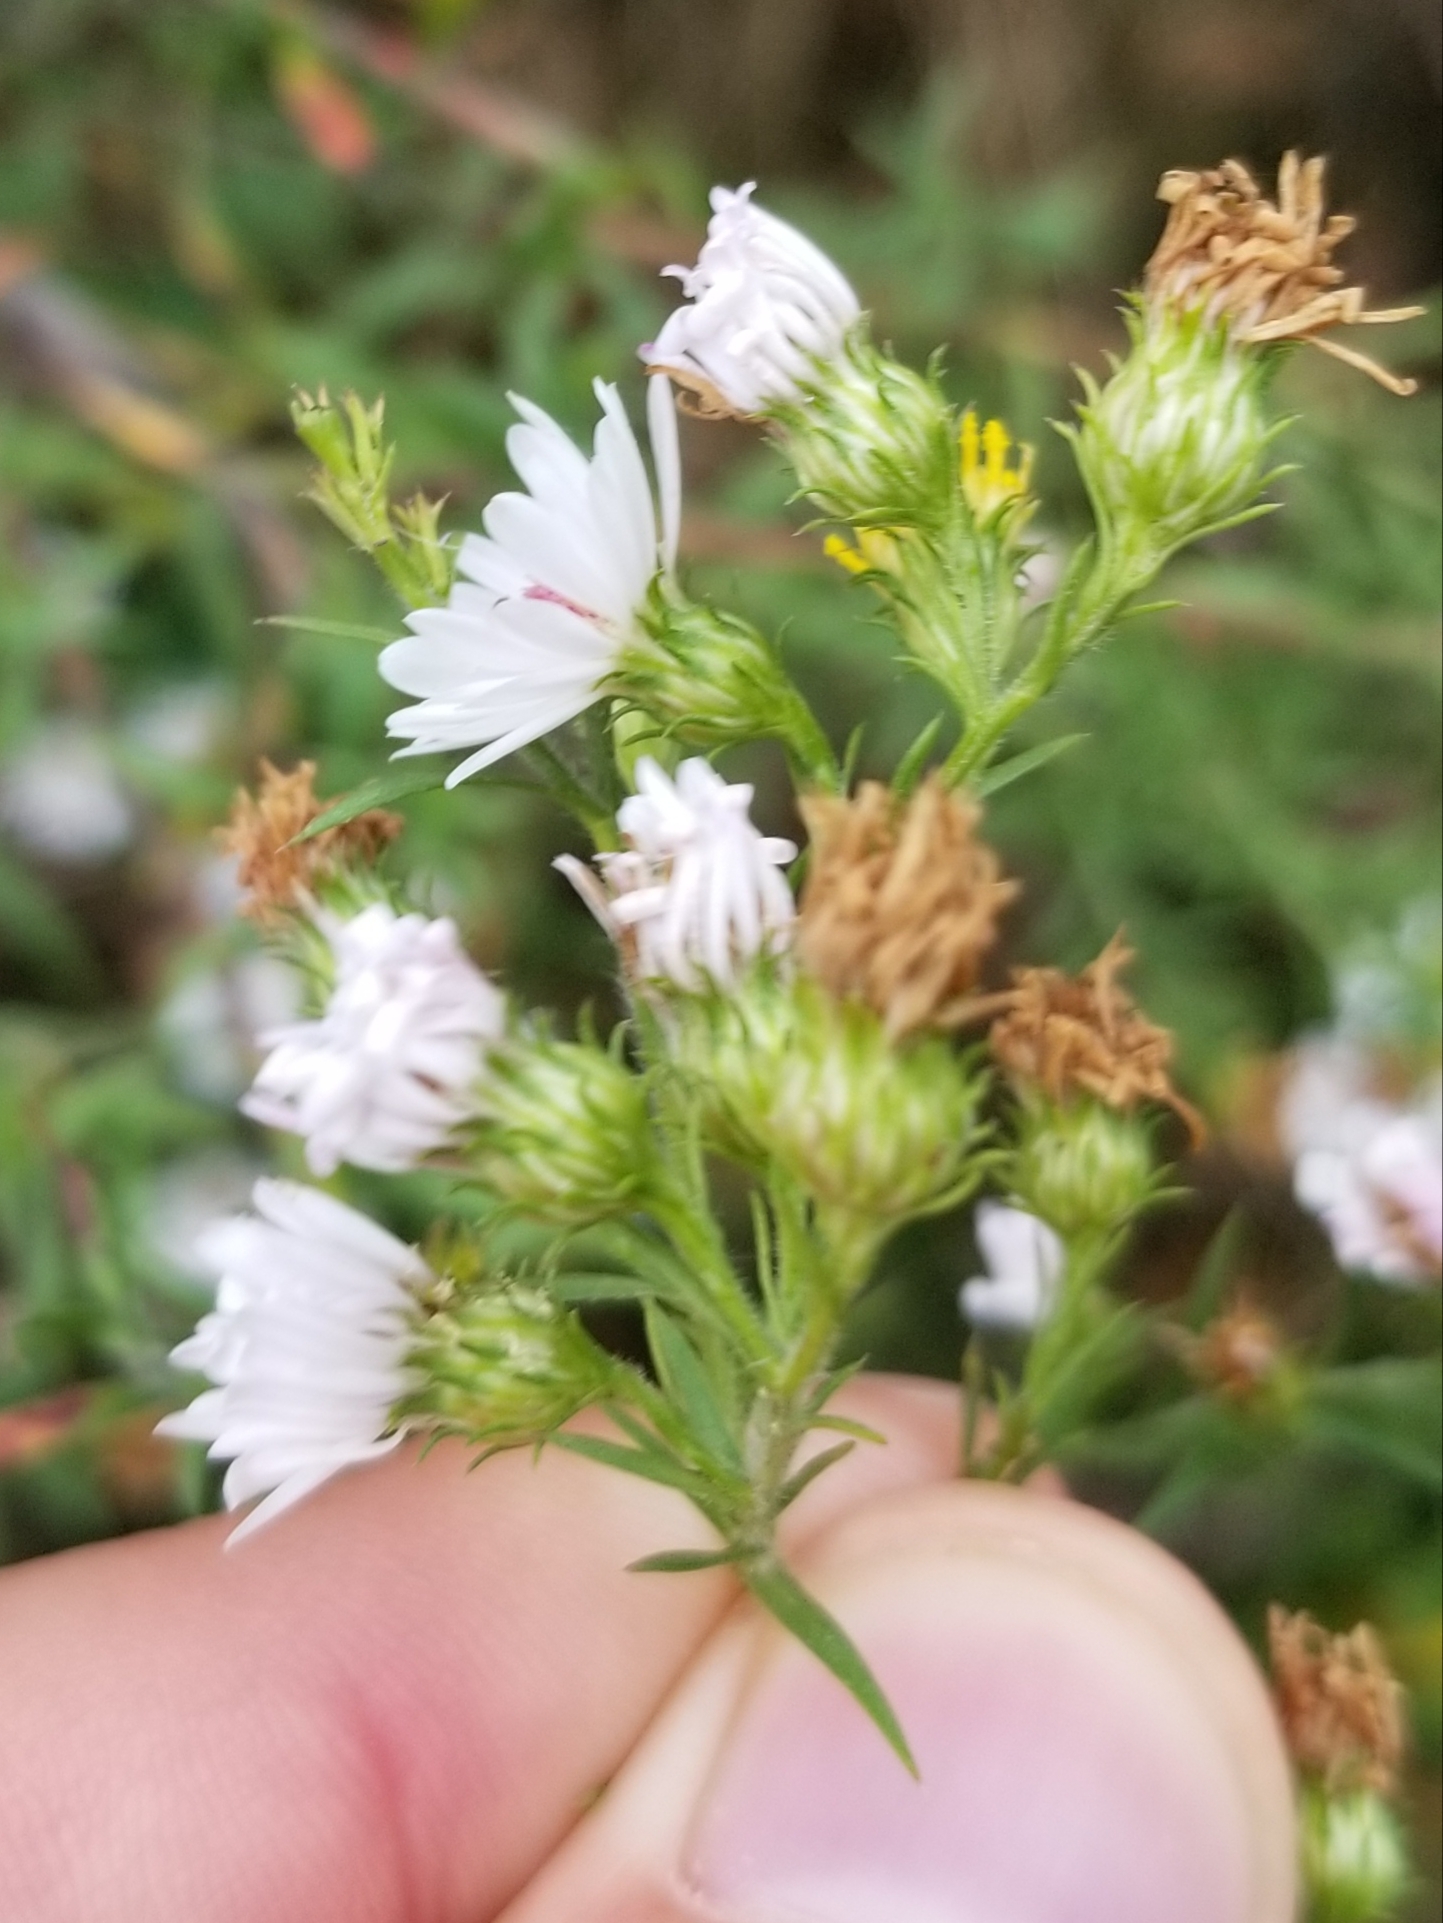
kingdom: Plantae
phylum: Tracheophyta
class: Magnoliopsida
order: Asterales
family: Asteraceae
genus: Symphyotrichum
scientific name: Symphyotrichum pilosum
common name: Awl aster
